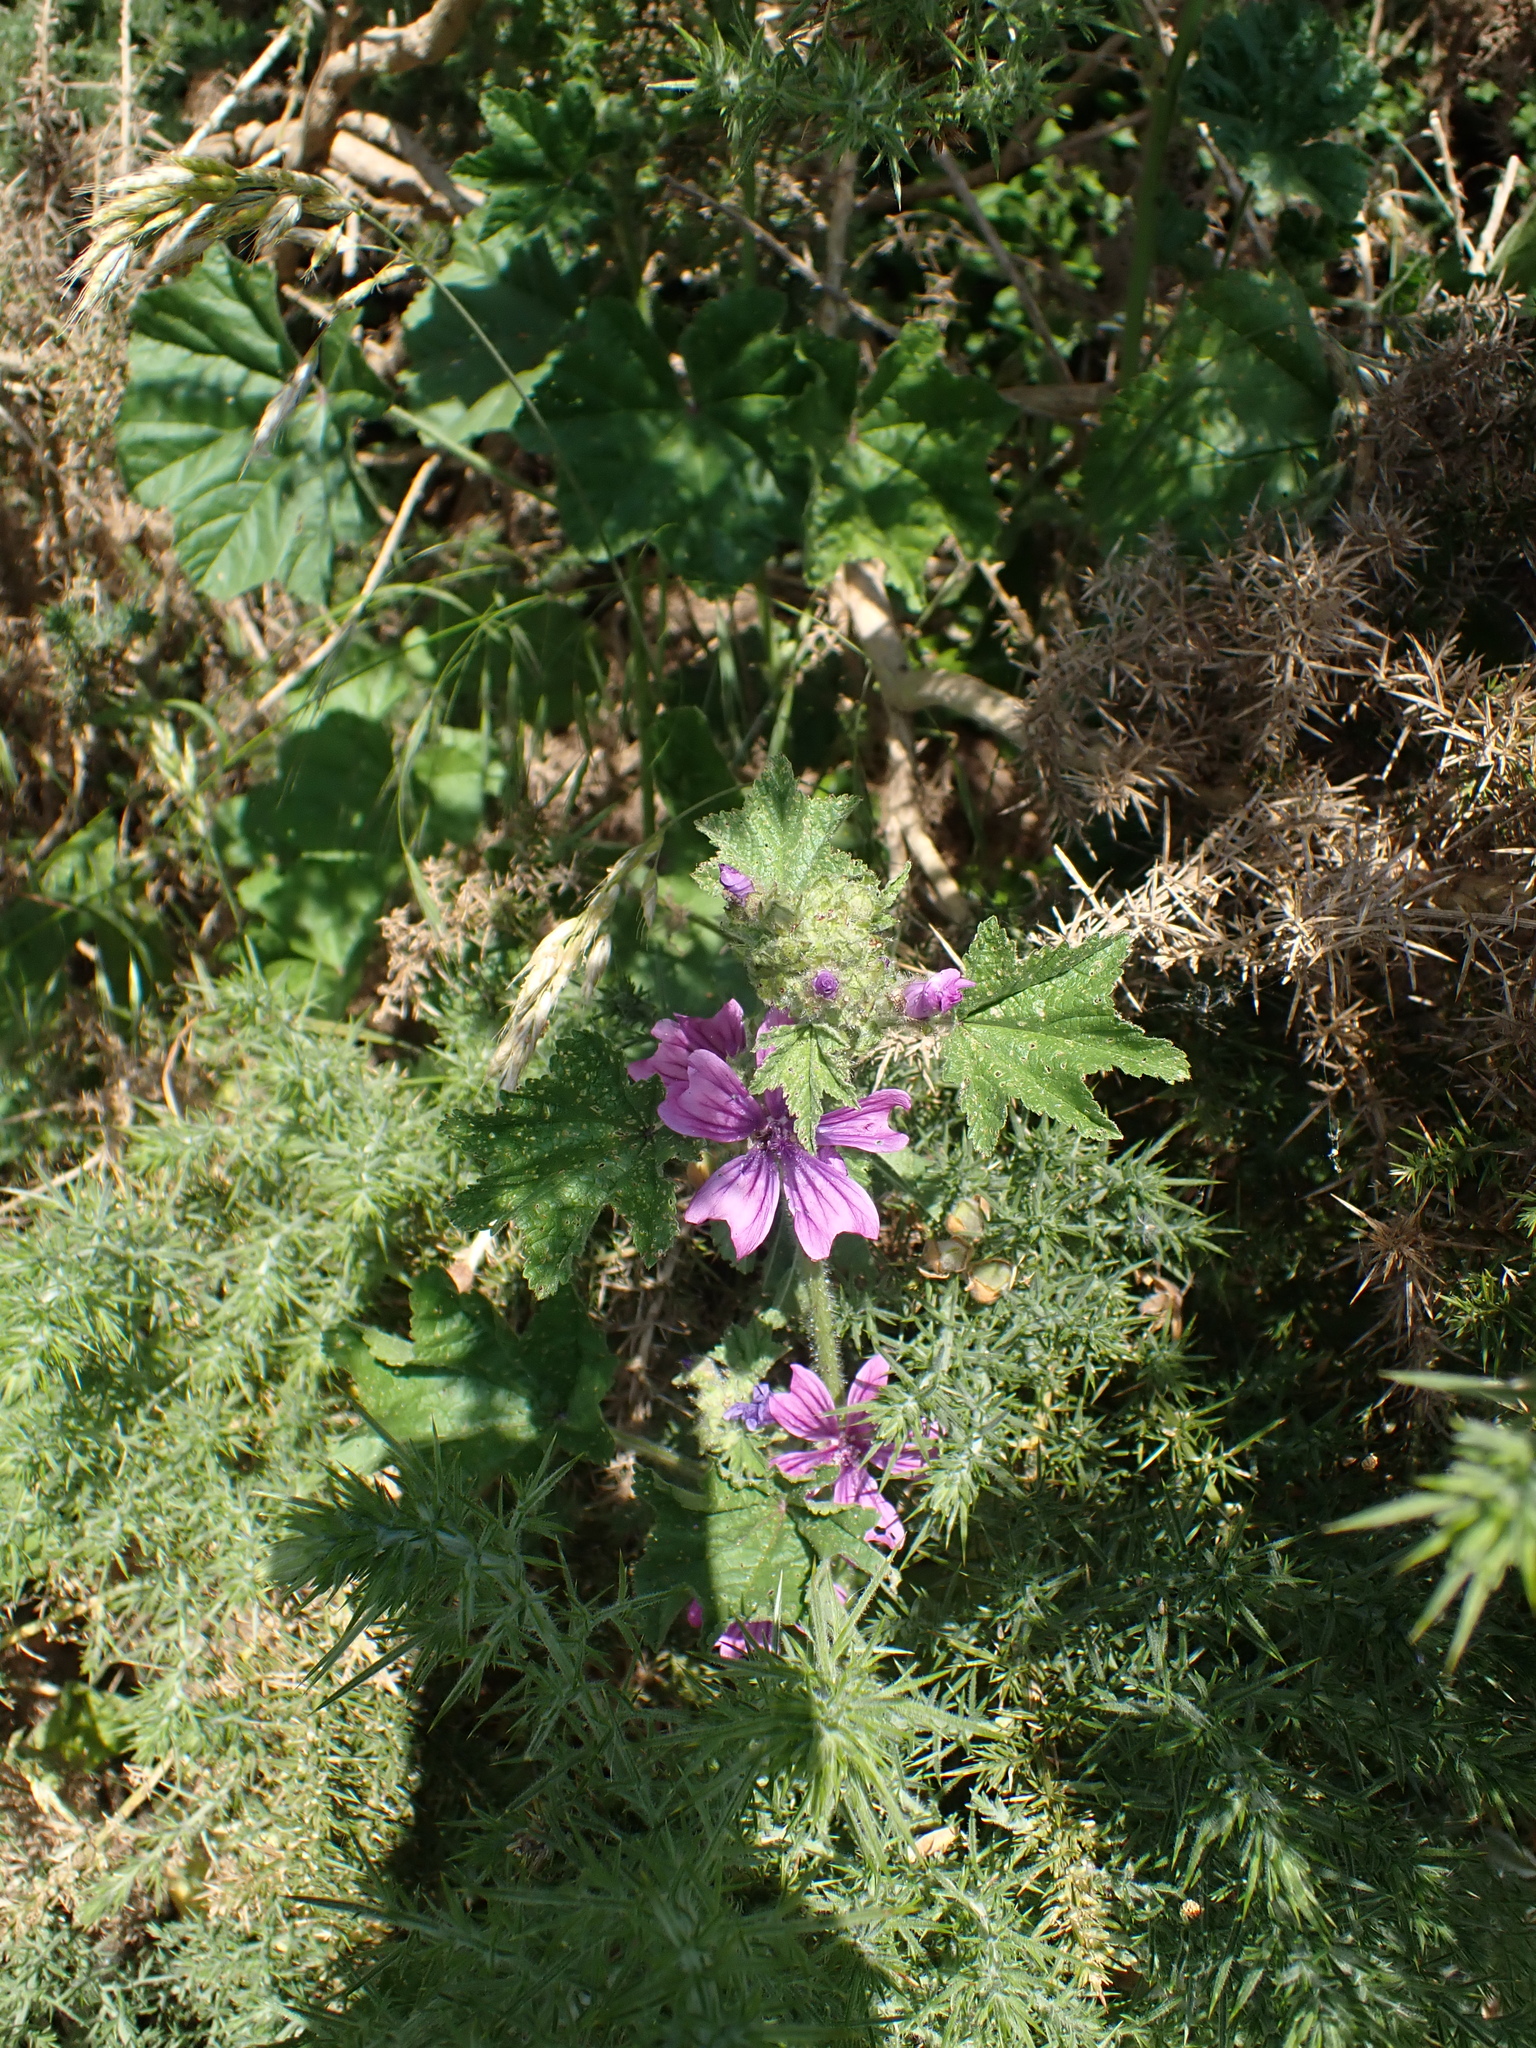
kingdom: Plantae
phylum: Tracheophyta
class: Magnoliopsida
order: Malvales
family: Malvaceae
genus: Malva
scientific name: Malva sylvestris
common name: Common mallow
